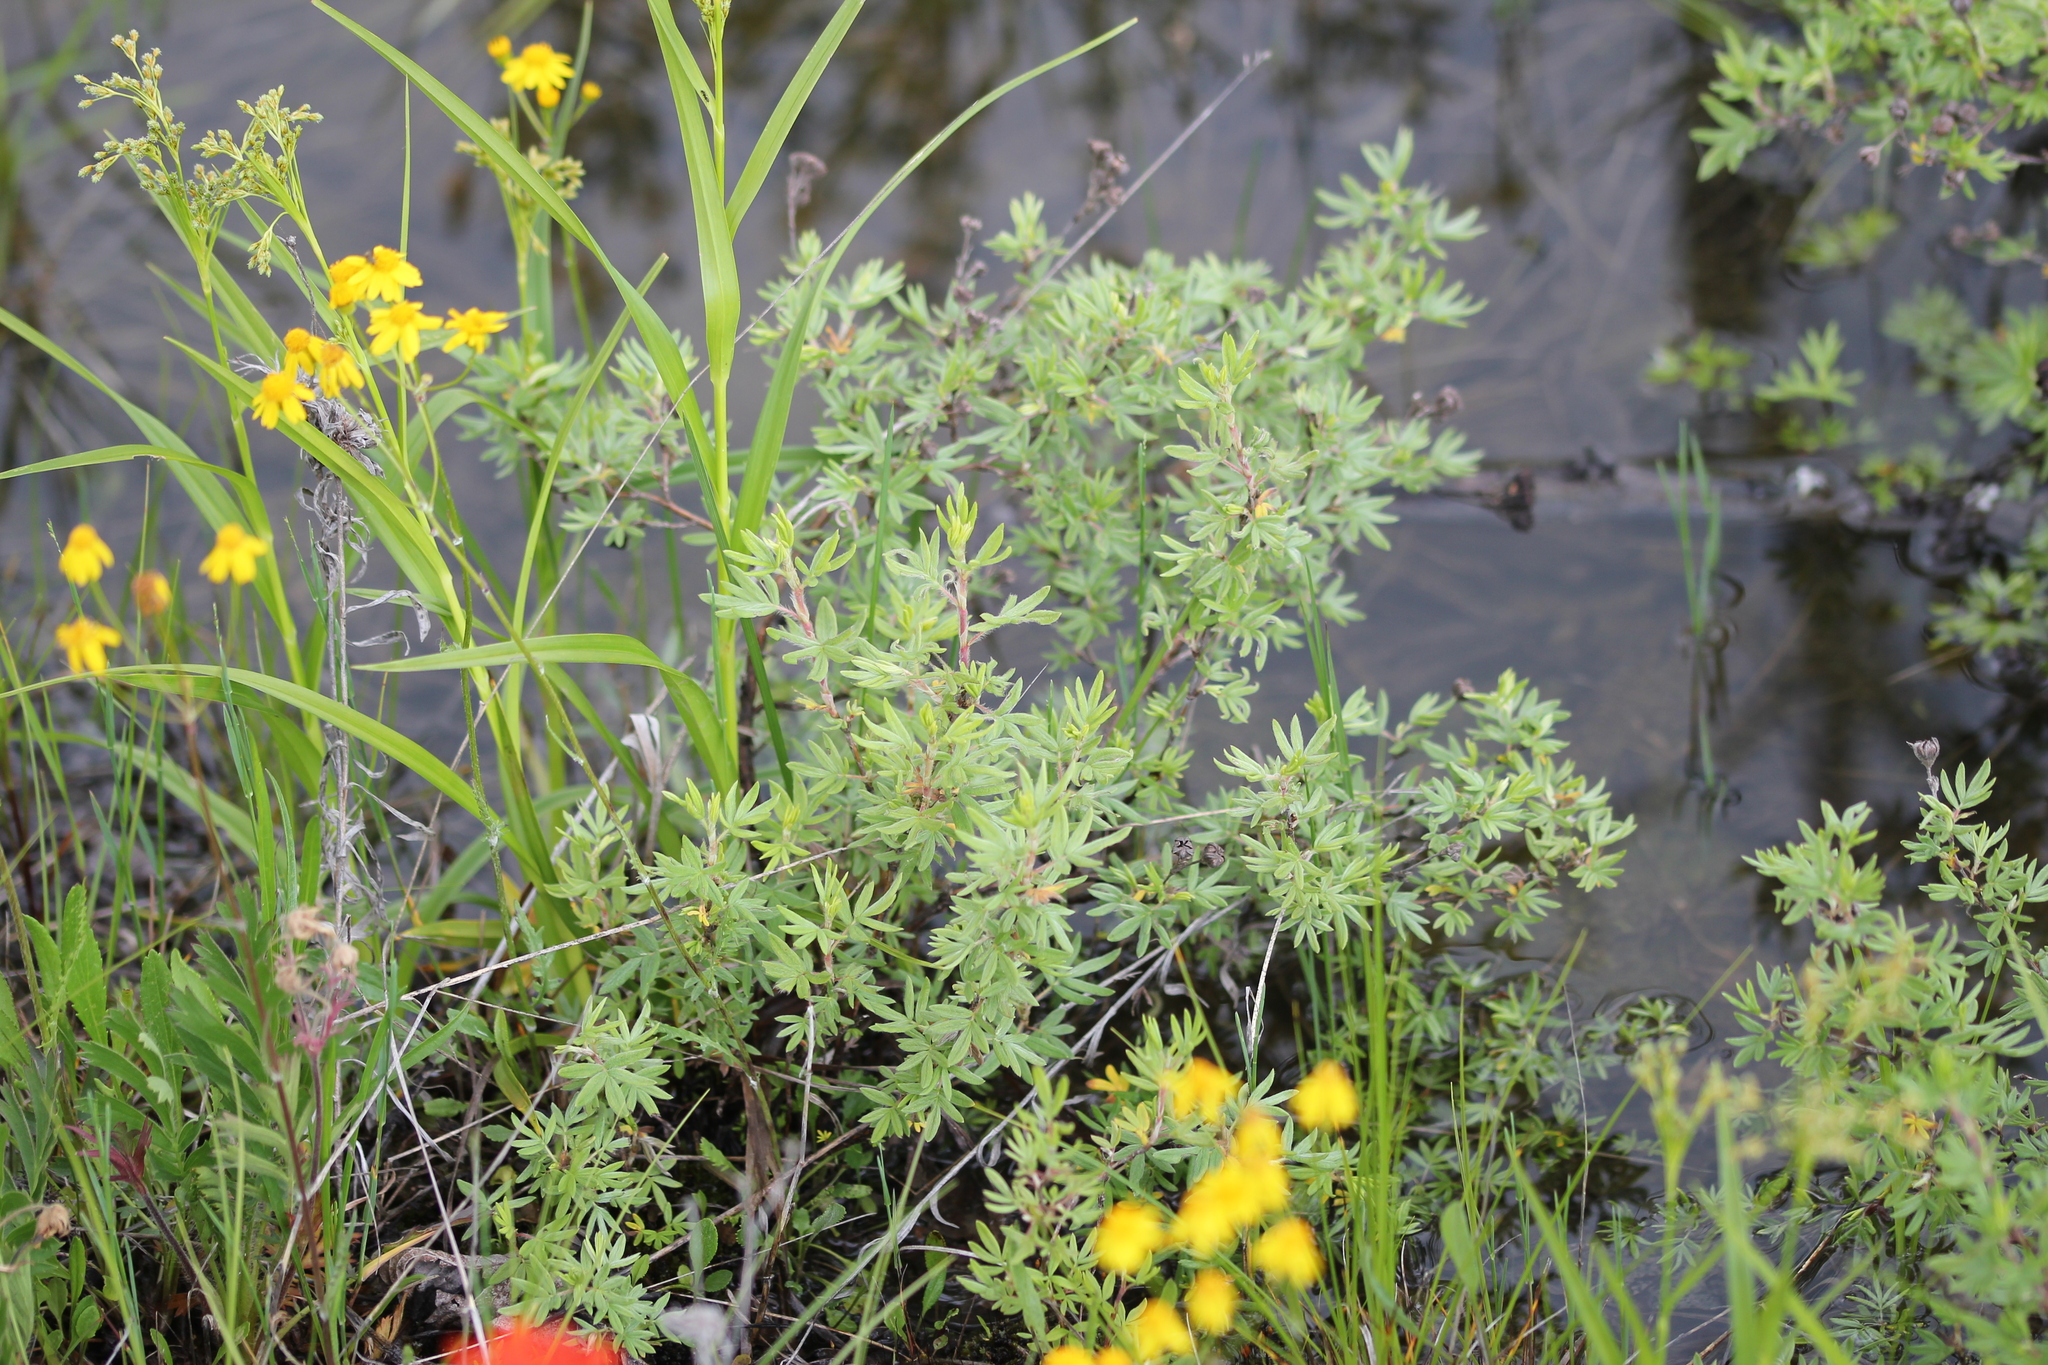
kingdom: Plantae
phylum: Tracheophyta
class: Magnoliopsida
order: Rosales
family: Rosaceae
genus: Dasiphora
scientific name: Dasiphora fruticosa
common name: Shrubby cinquefoil
